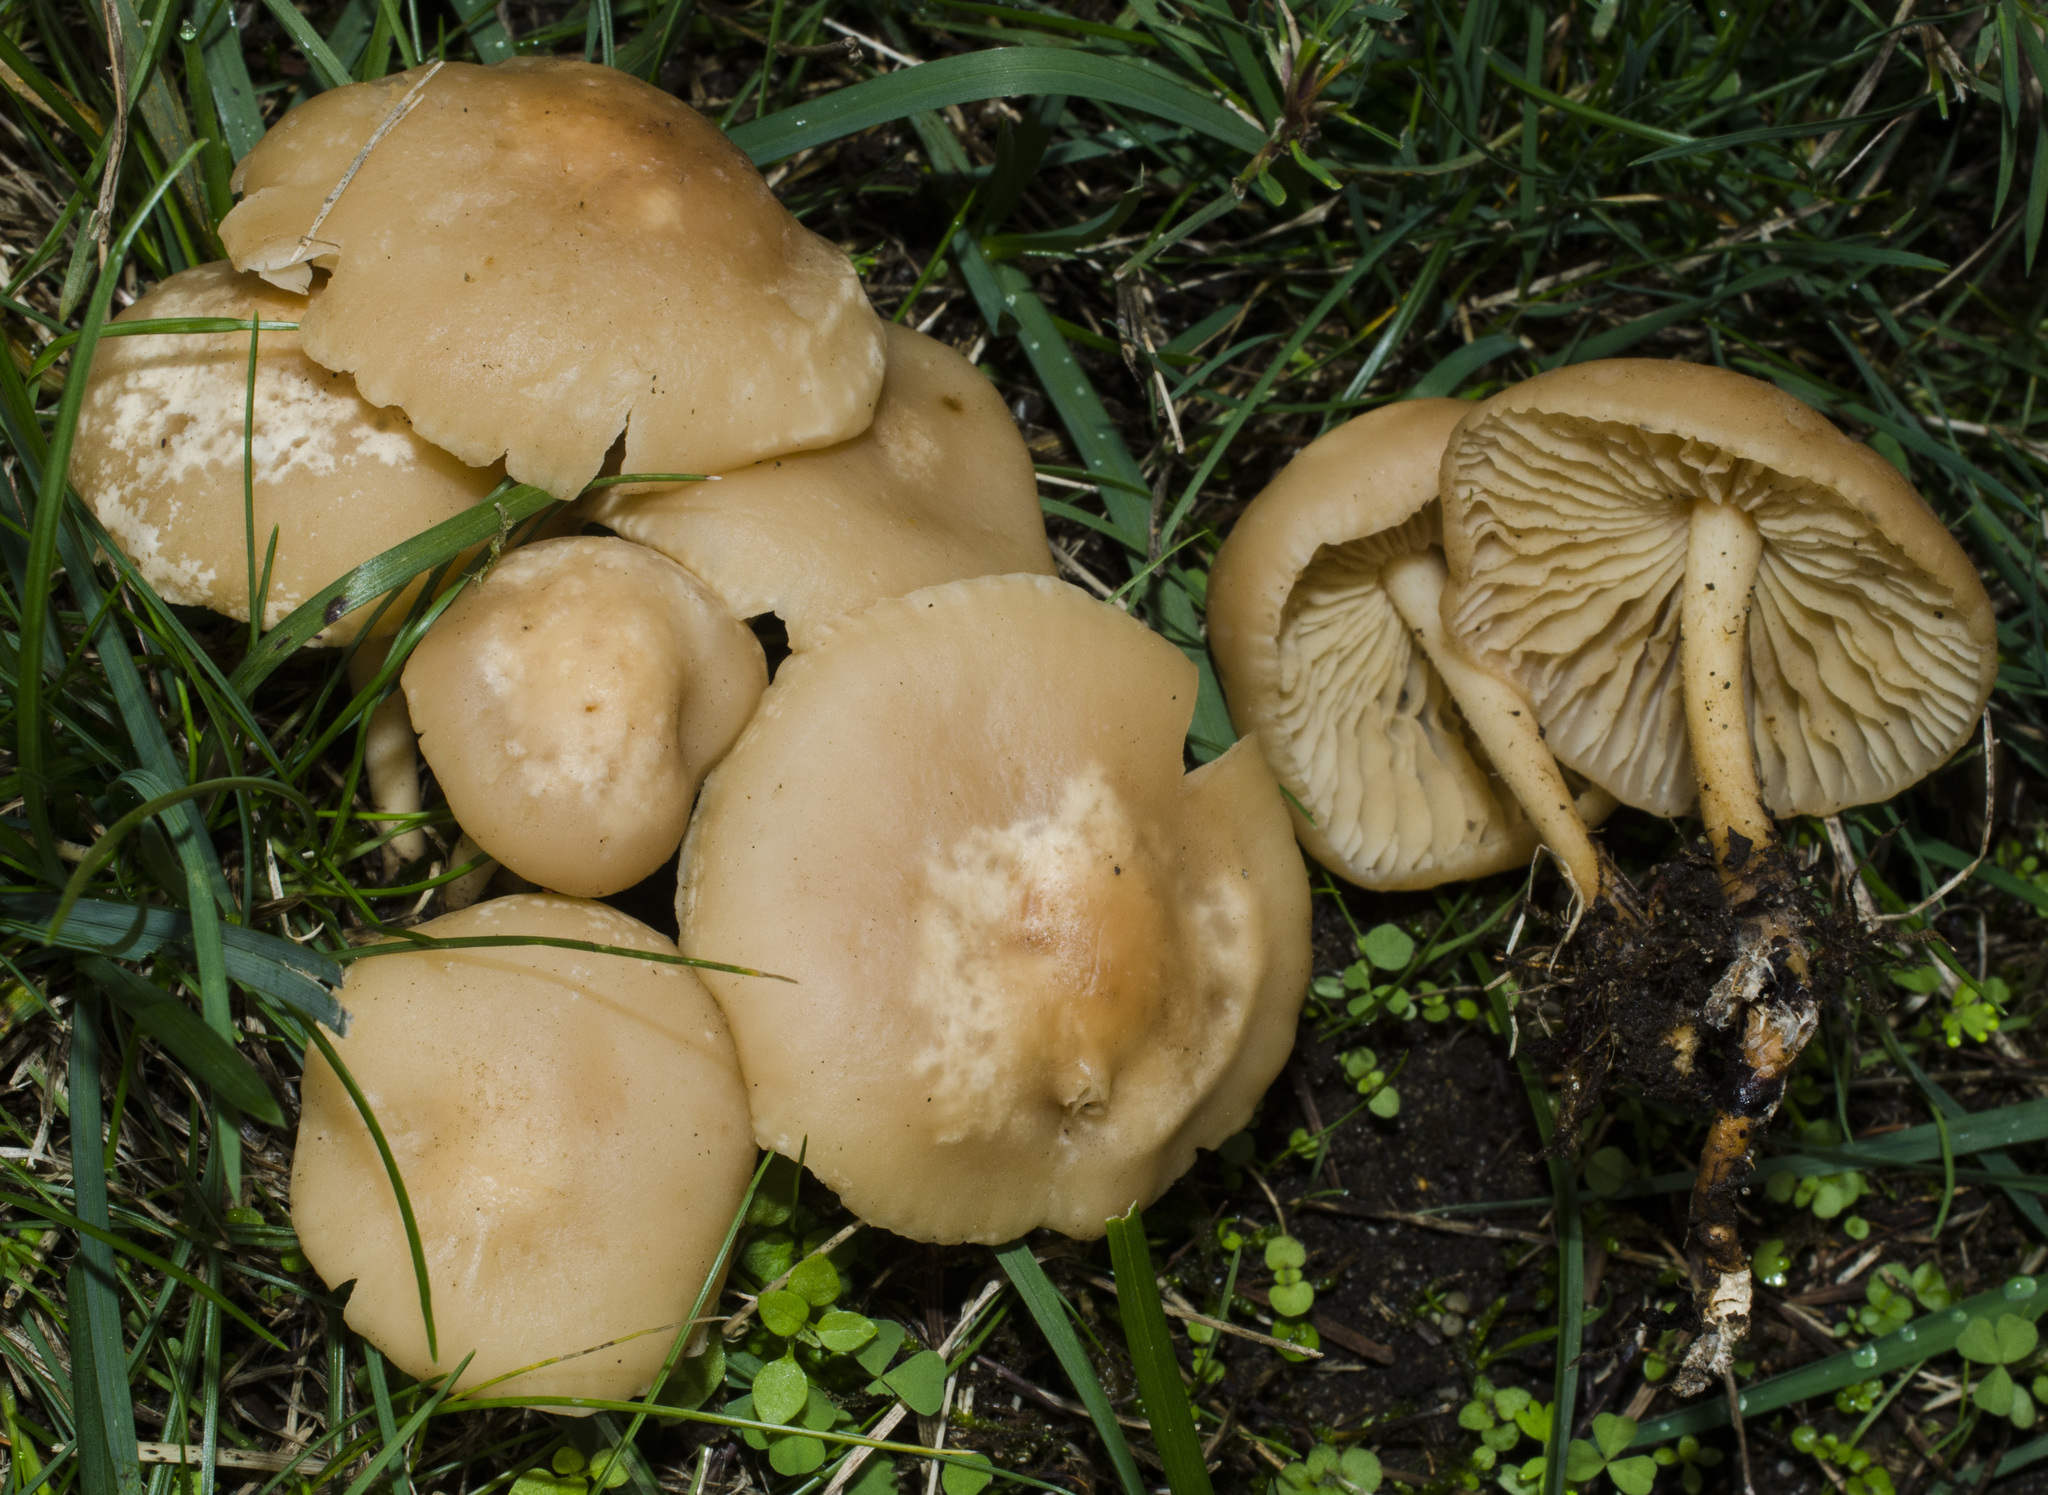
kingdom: Fungi
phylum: Basidiomycota
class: Agaricomycetes
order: Agaricales
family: Marasmiaceae
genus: Marasmius
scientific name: Marasmius oreades
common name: Fairy ring champignon
